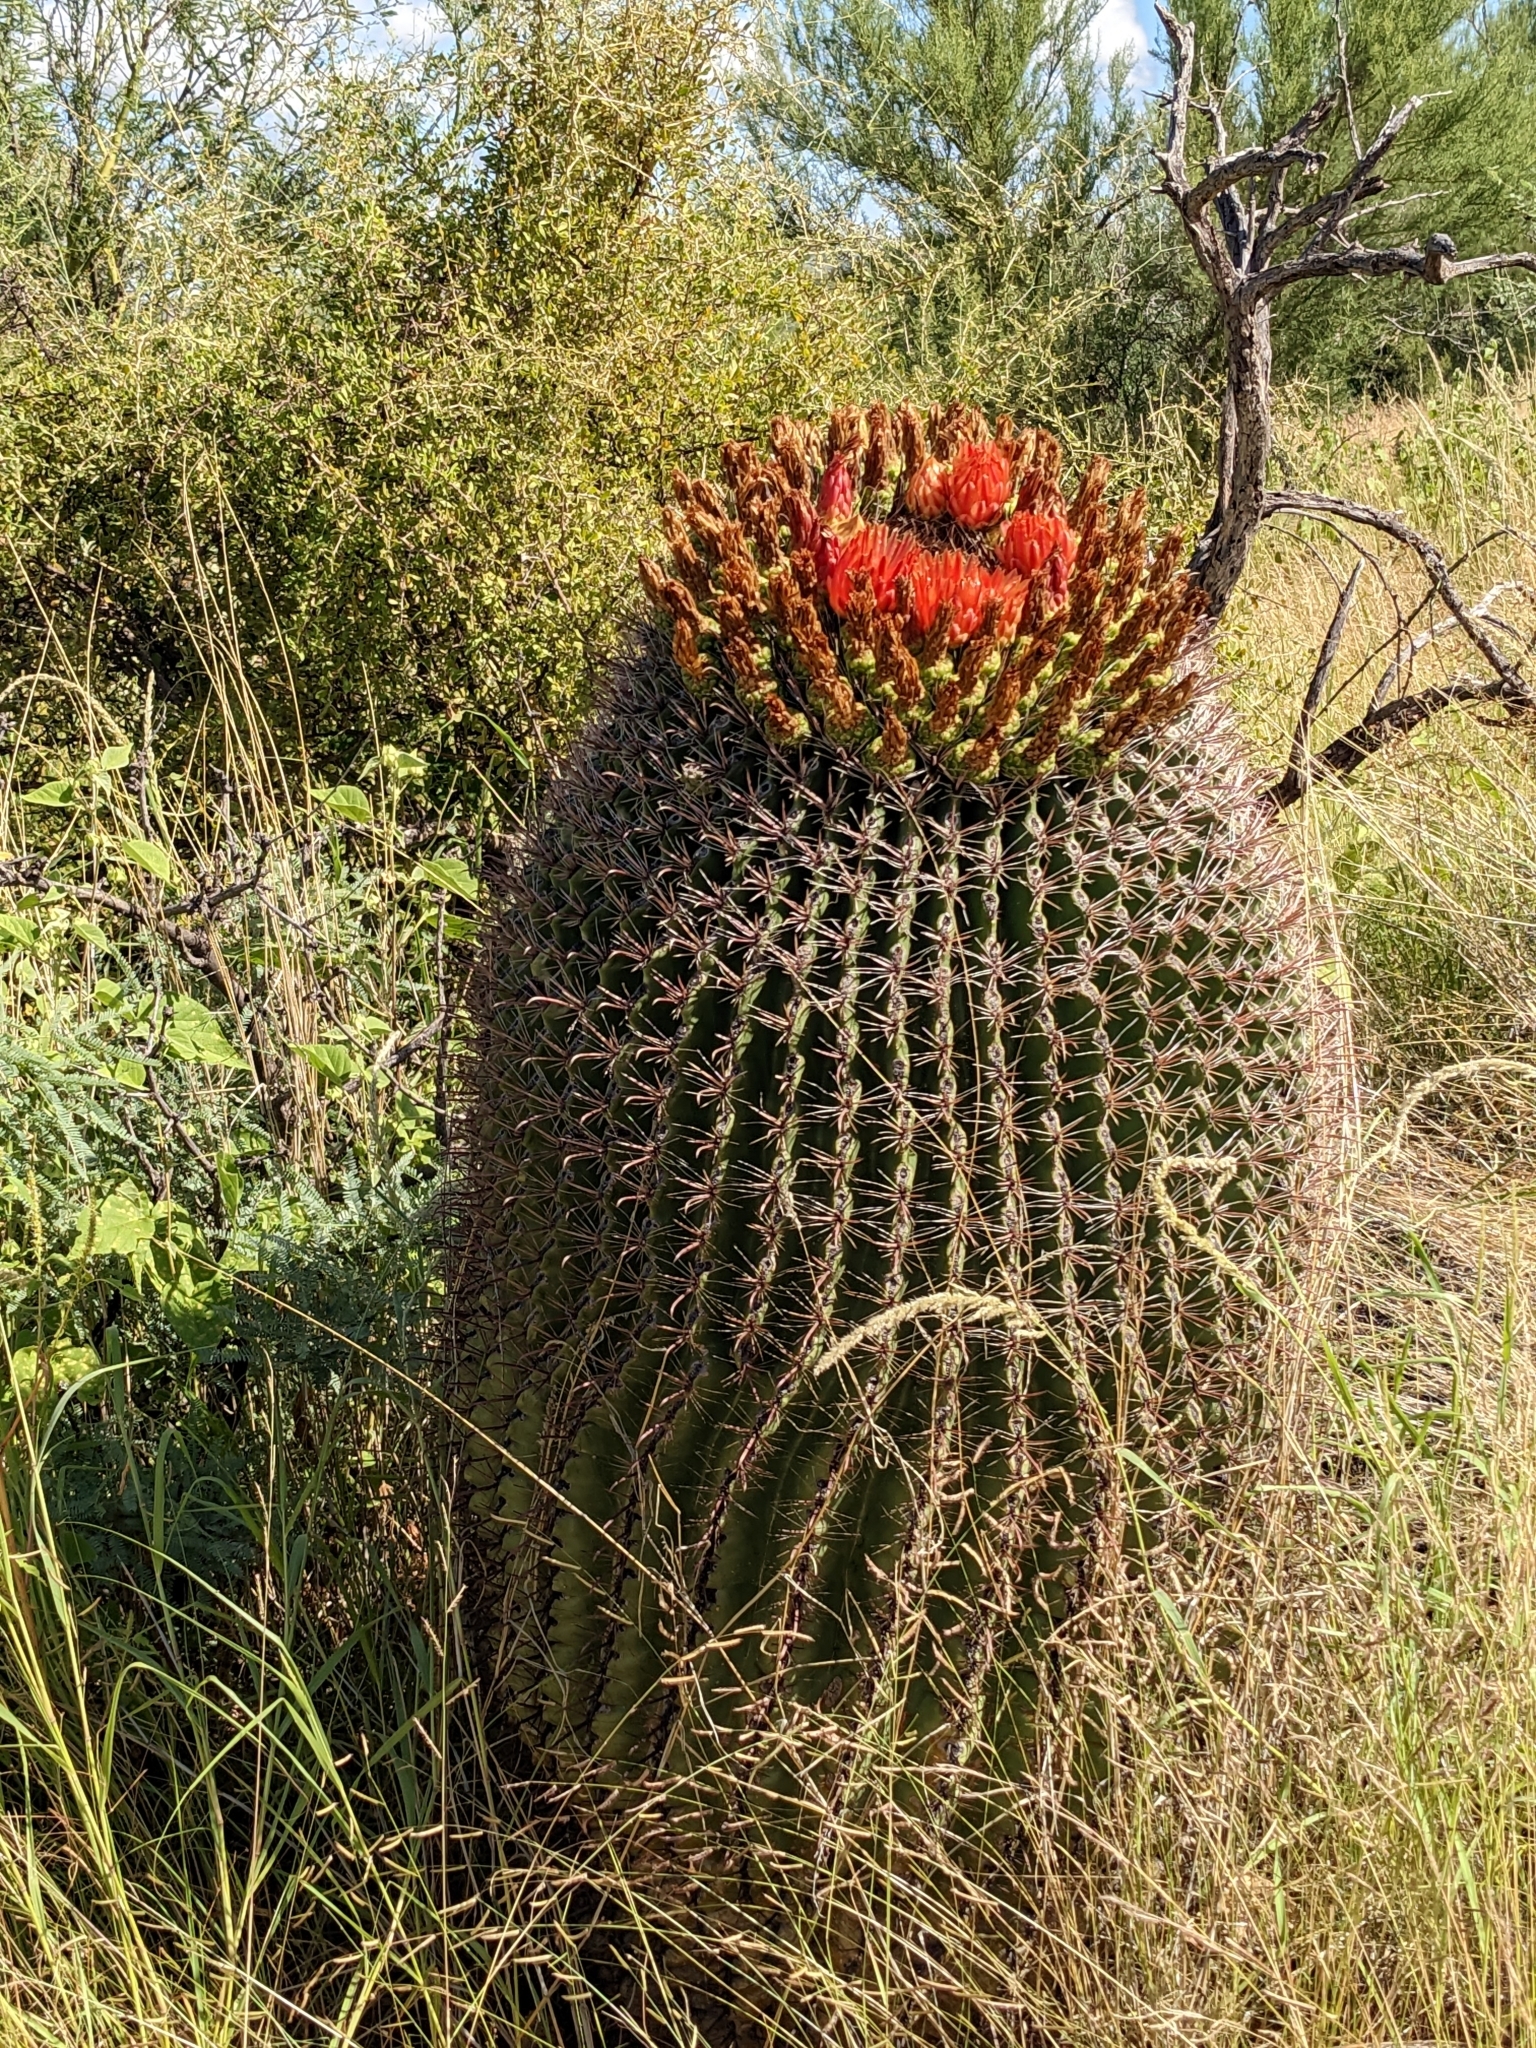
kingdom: Plantae
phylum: Tracheophyta
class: Magnoliopsida
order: Caryophyllales
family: Cactaceae
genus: Ferocactus
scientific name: Ferocactus wislizeni
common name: Candy barrel cactus
